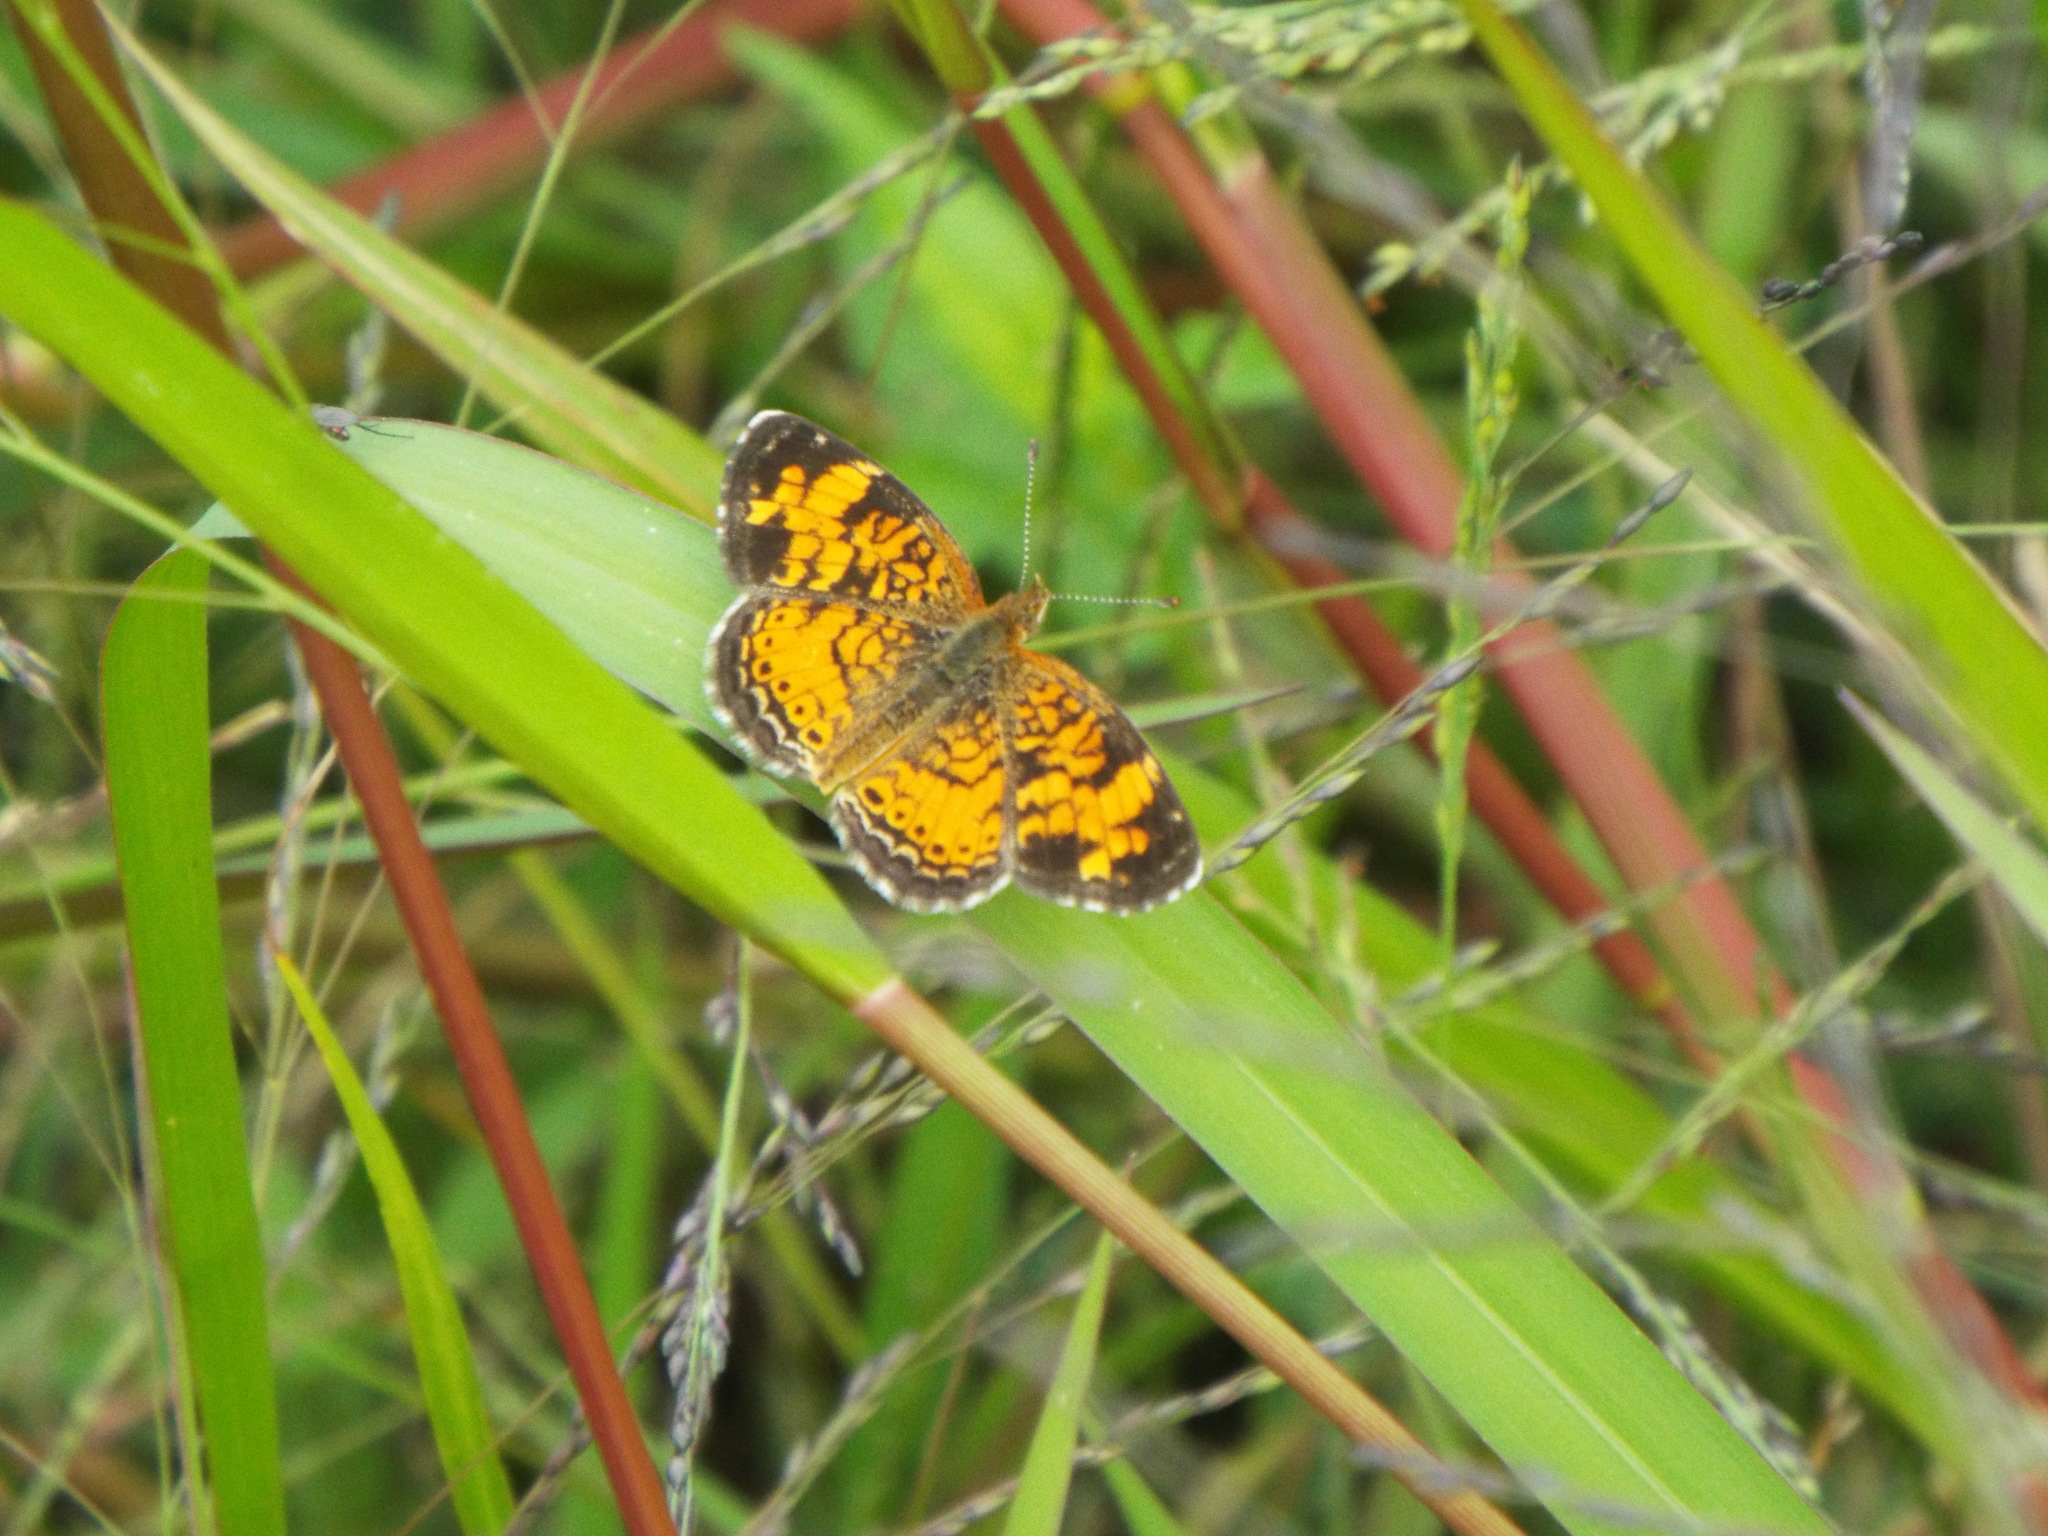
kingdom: Animalia
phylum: Arthropoda
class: Insecta
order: Lepidoptera
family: Nymphalidae
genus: Phyciodes
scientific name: Phyciodes tharos
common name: Pearl crescent
